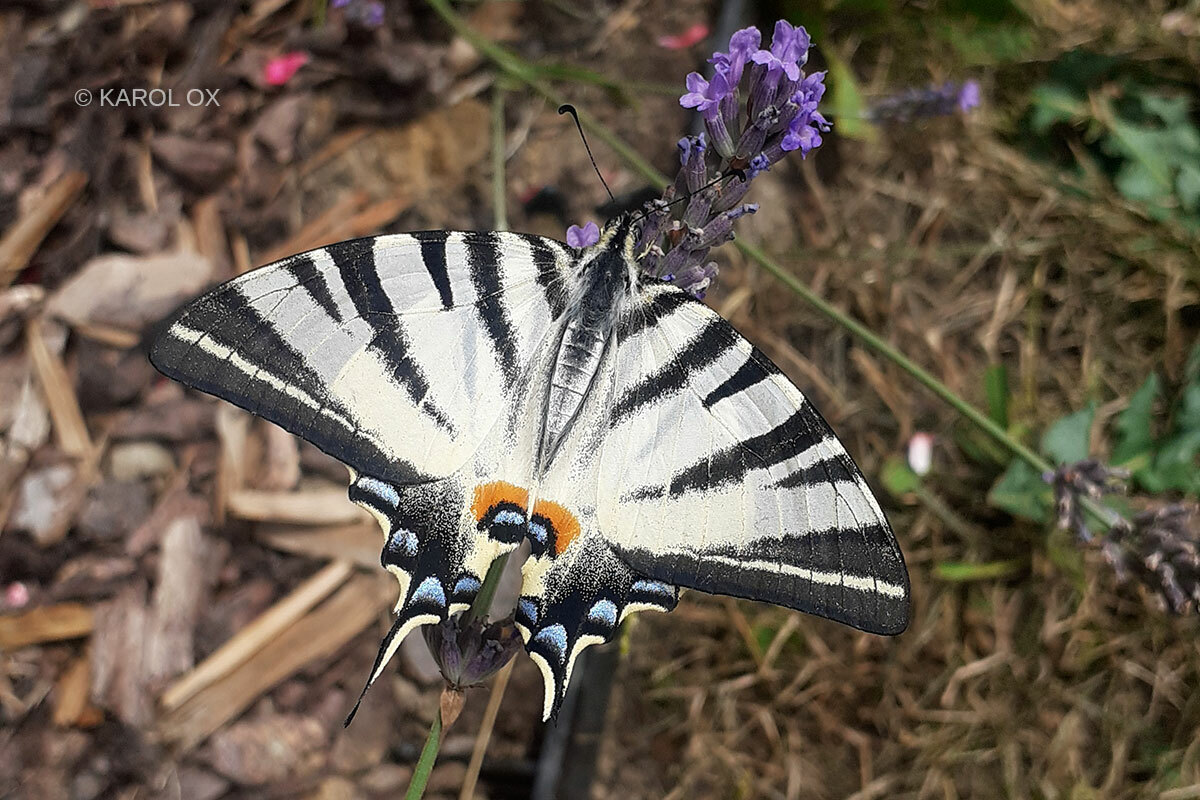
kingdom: Animalia
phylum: Arthropoda
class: Insecta
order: Lepidoptera
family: Papilionidae
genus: Iphiclides
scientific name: Iphiclides podalirius
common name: Scarce swallowtail
